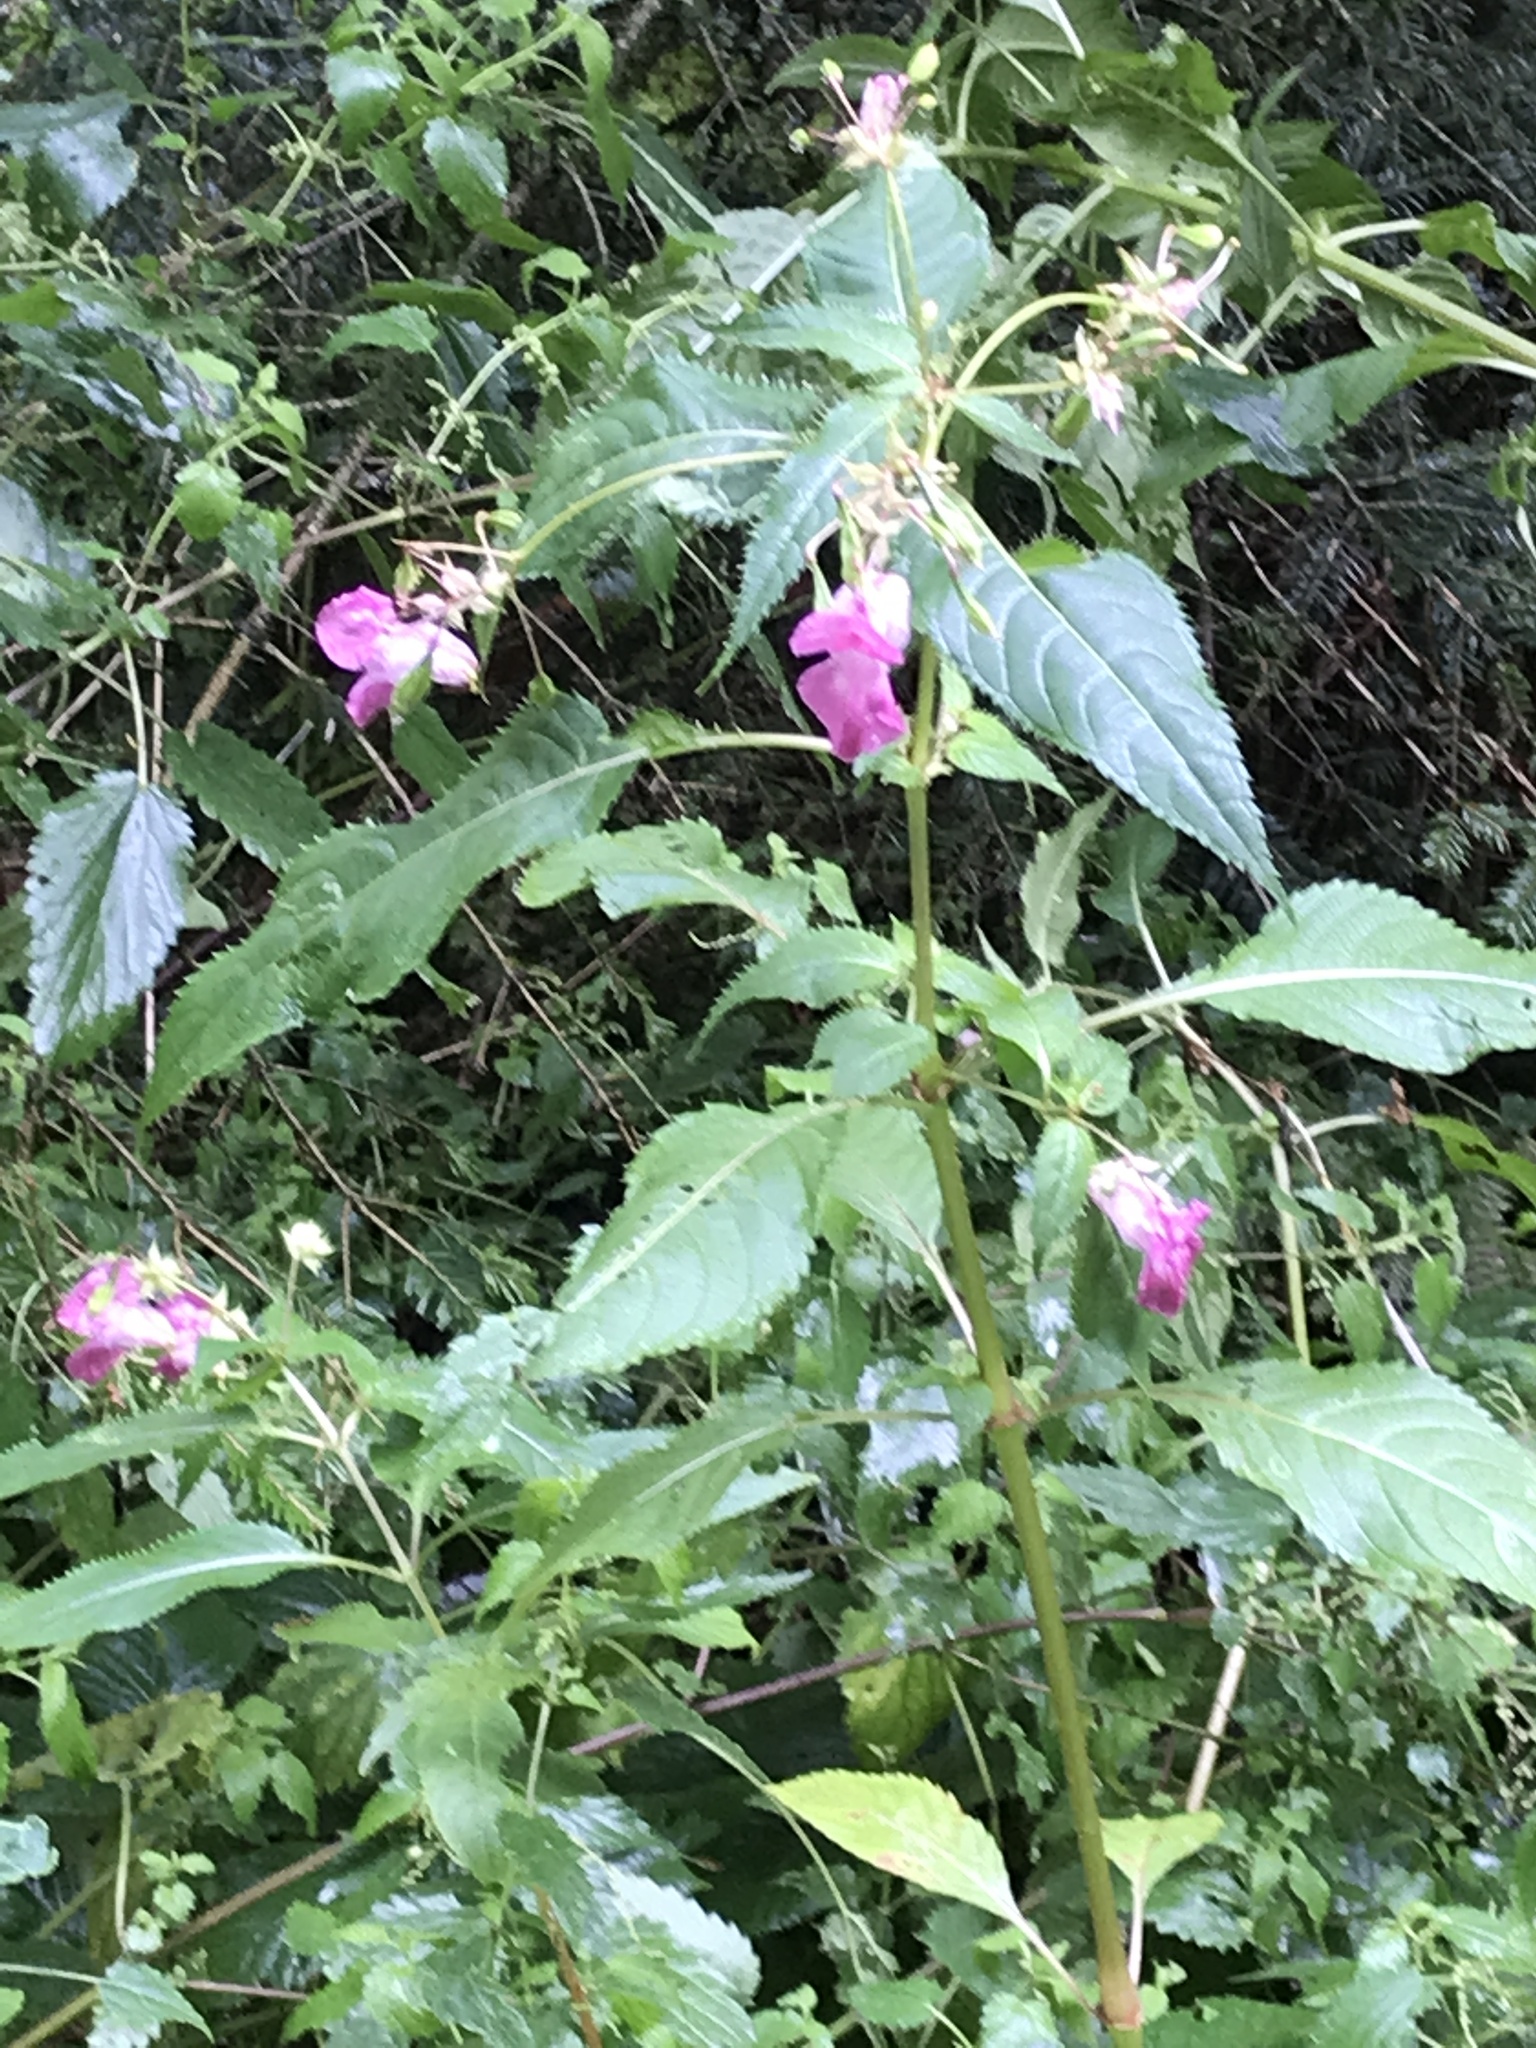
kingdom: Plantae
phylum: Tracheophyta
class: Magnoliopsida
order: Ericales
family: Balsaminaceae
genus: Impatiens
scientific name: Impatiens glandulifera
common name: Himalayan balsam
